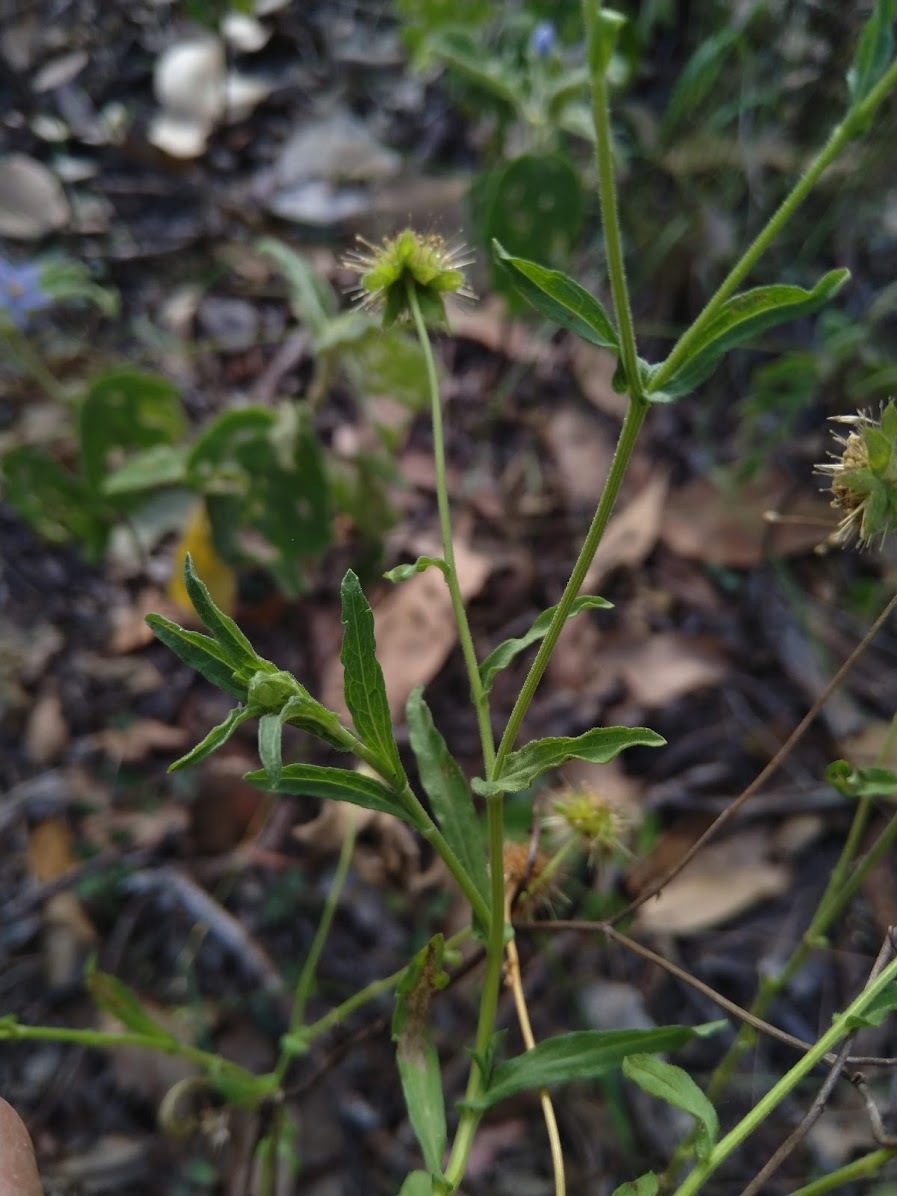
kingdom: Plantae
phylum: Tracheophyta
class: Magnoliopsida
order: Asterales
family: Asteraceae
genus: Calotis
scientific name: Calotis dentex
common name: White bur-daisy
